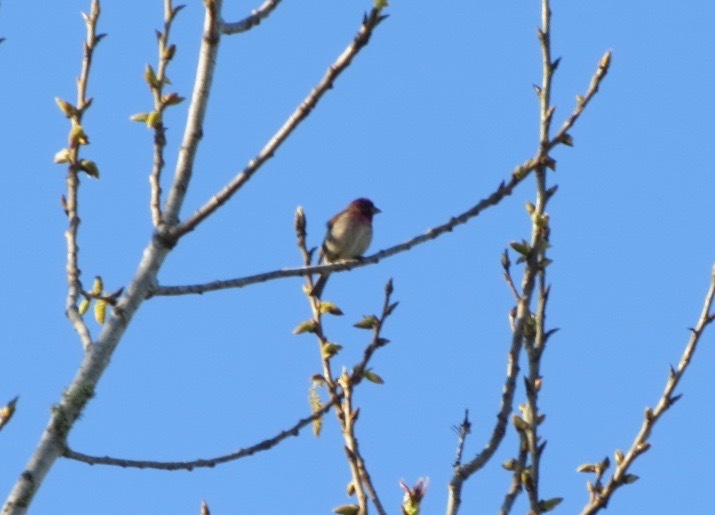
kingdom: Animalia
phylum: Chordata
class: Aves
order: Passeriformes
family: Fringillidae
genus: Haemorhous
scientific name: Haemorhous purpureus
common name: Purple finch
